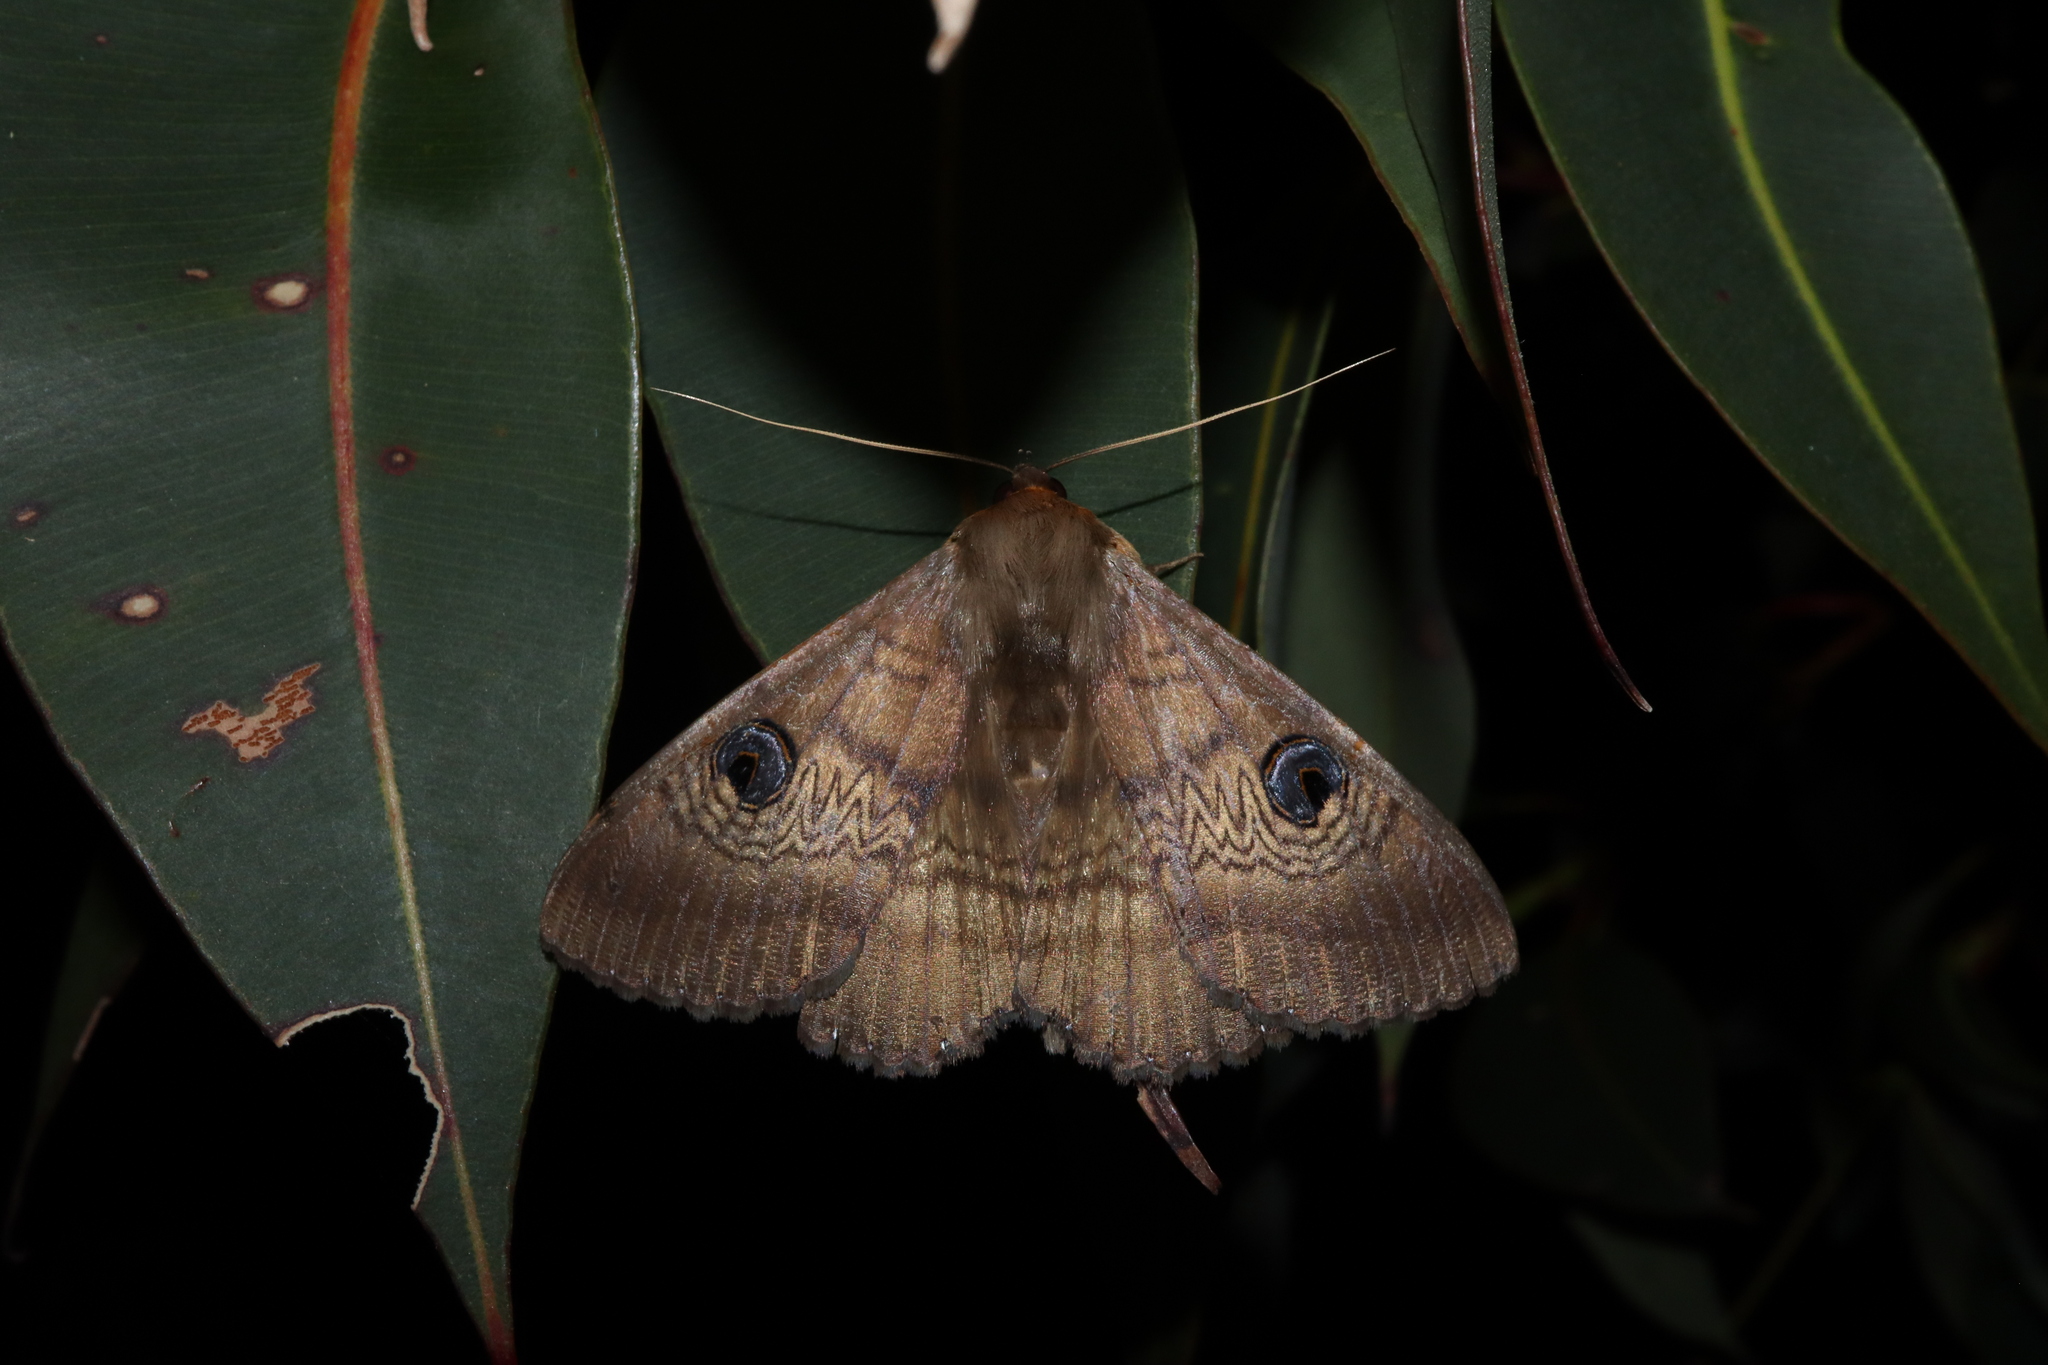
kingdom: Animalia
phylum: Arthropoda
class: Insecta
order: Lepidoptera
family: Erebidae
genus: Dasypodia
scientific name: Dasypodia selenophora
